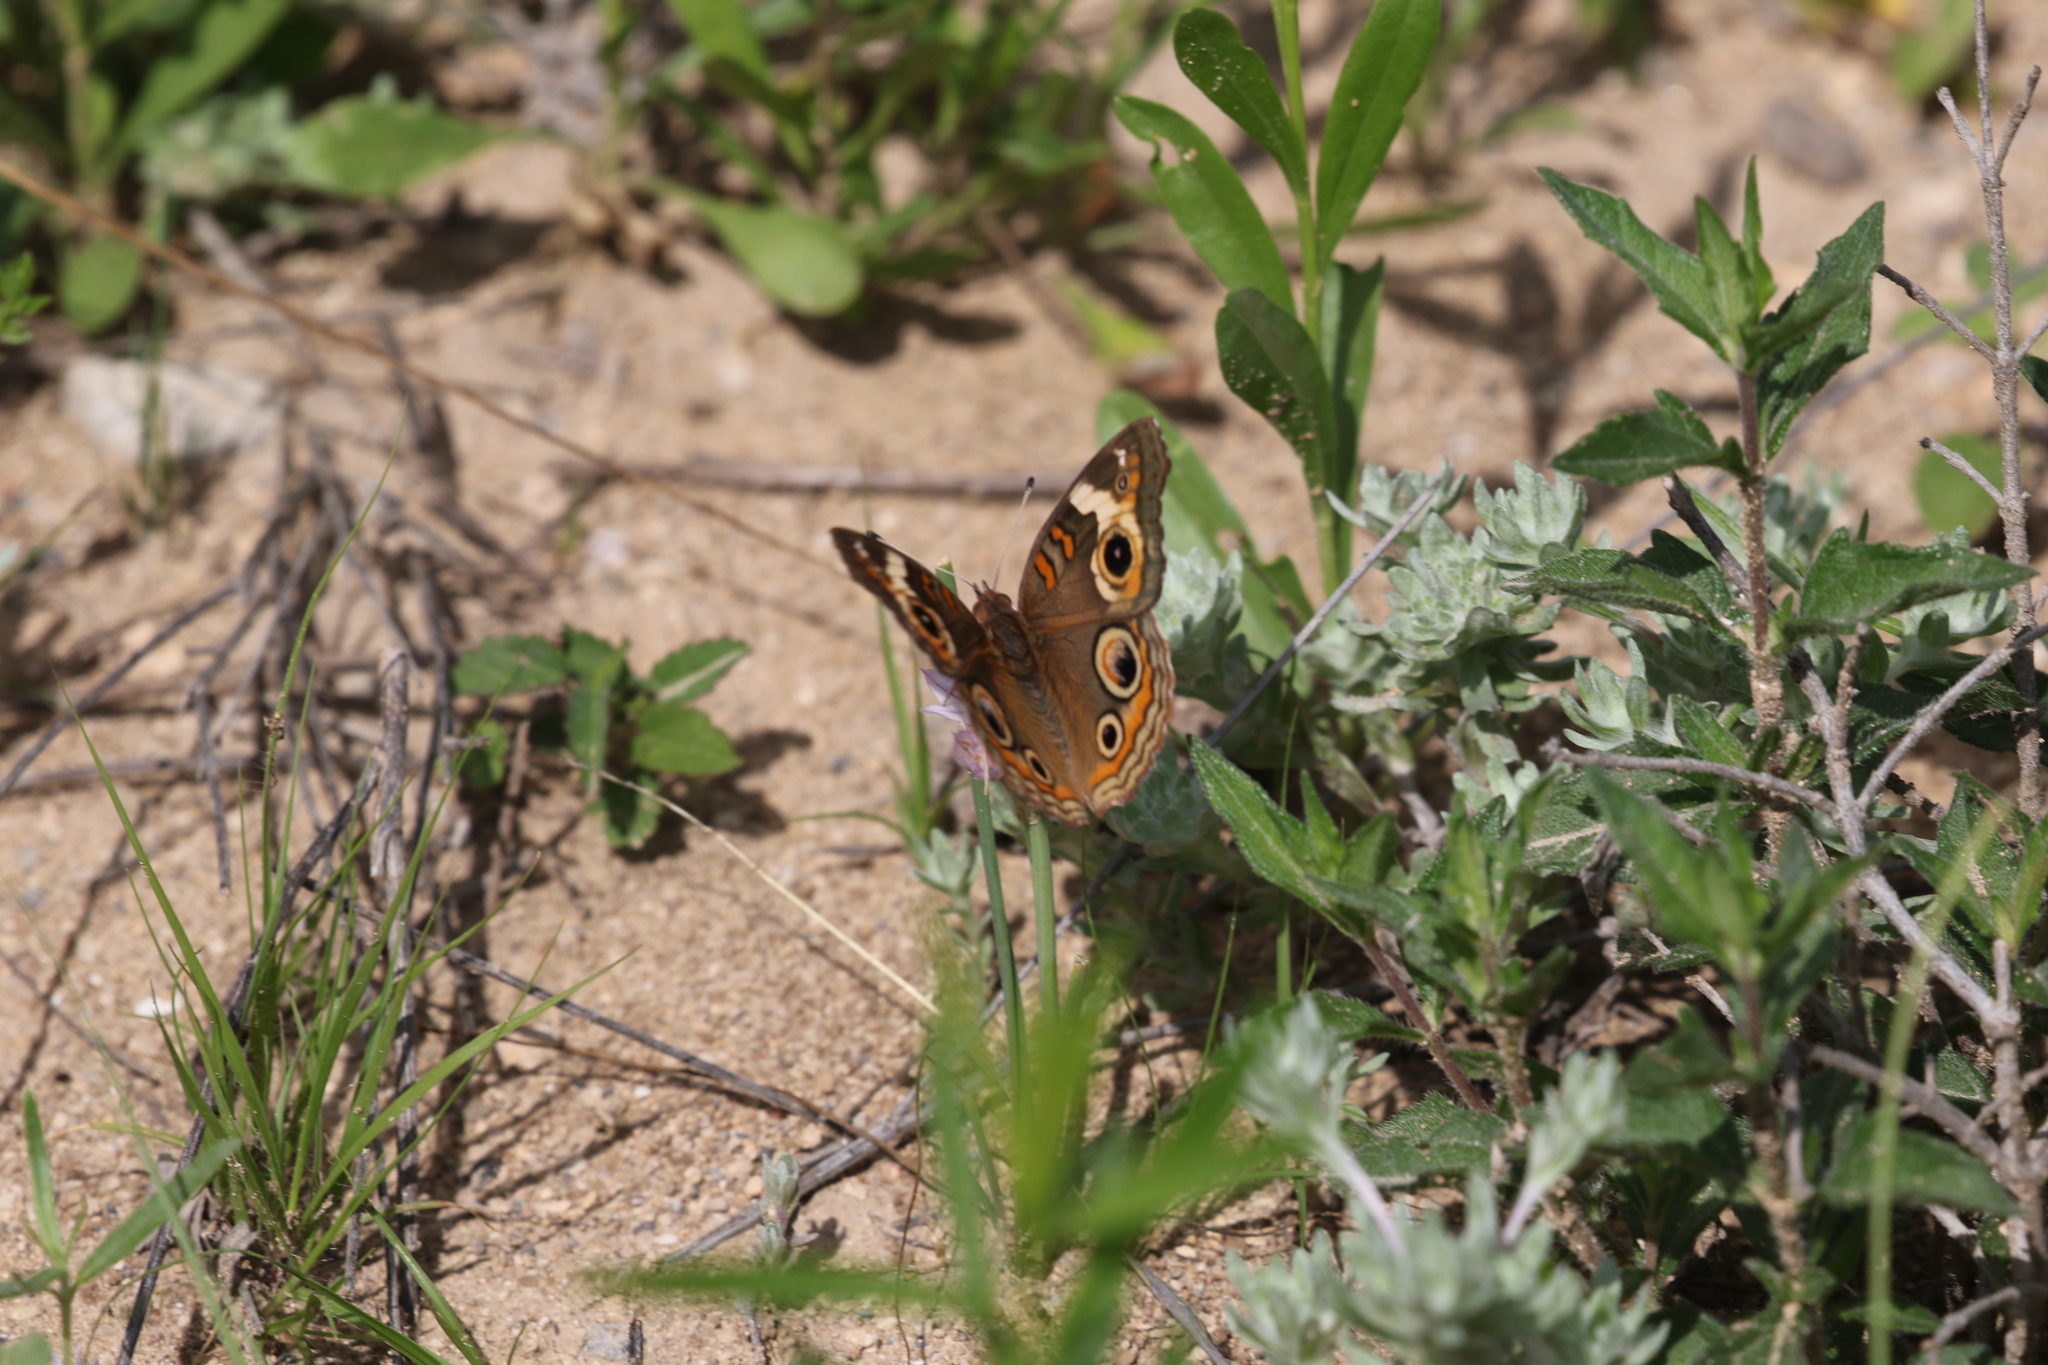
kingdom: Animalia
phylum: Arthropoda
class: Insecta
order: Lepidoptera
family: Nymphalidae
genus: Junonia
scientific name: Junonia coenia
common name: Common buckeye
